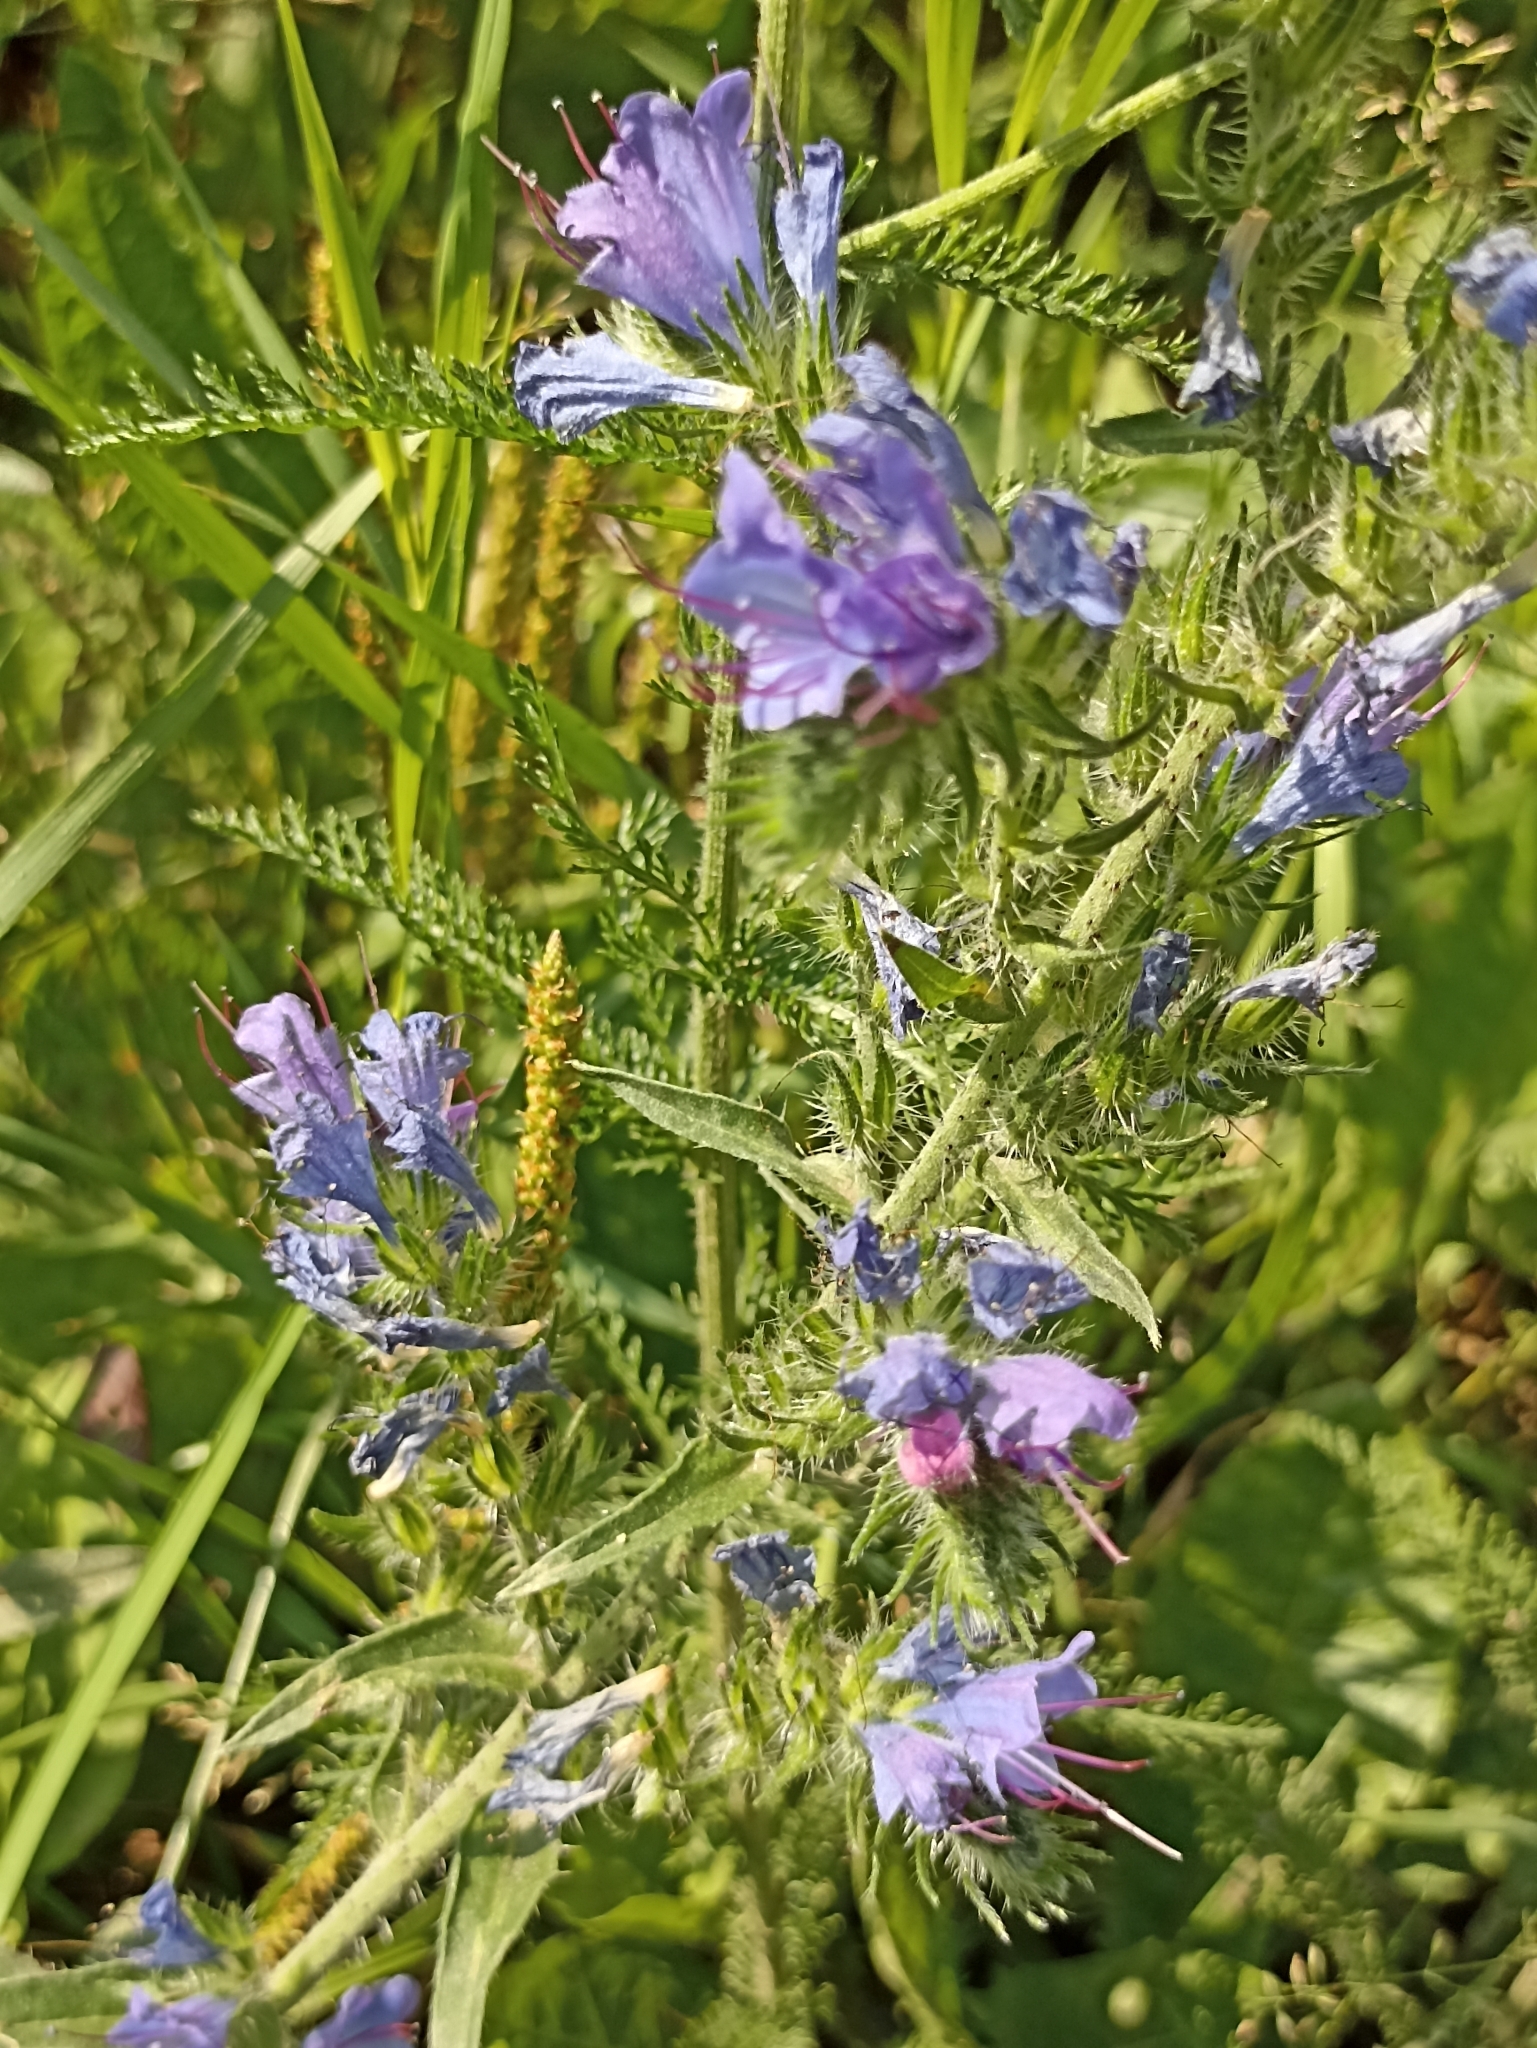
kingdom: Plantae
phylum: Tracheophyta
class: Magnoliopsida
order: Boraginales
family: Boraginaceae
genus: Echium
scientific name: Echium vulgare
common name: Common viper's bugloss
